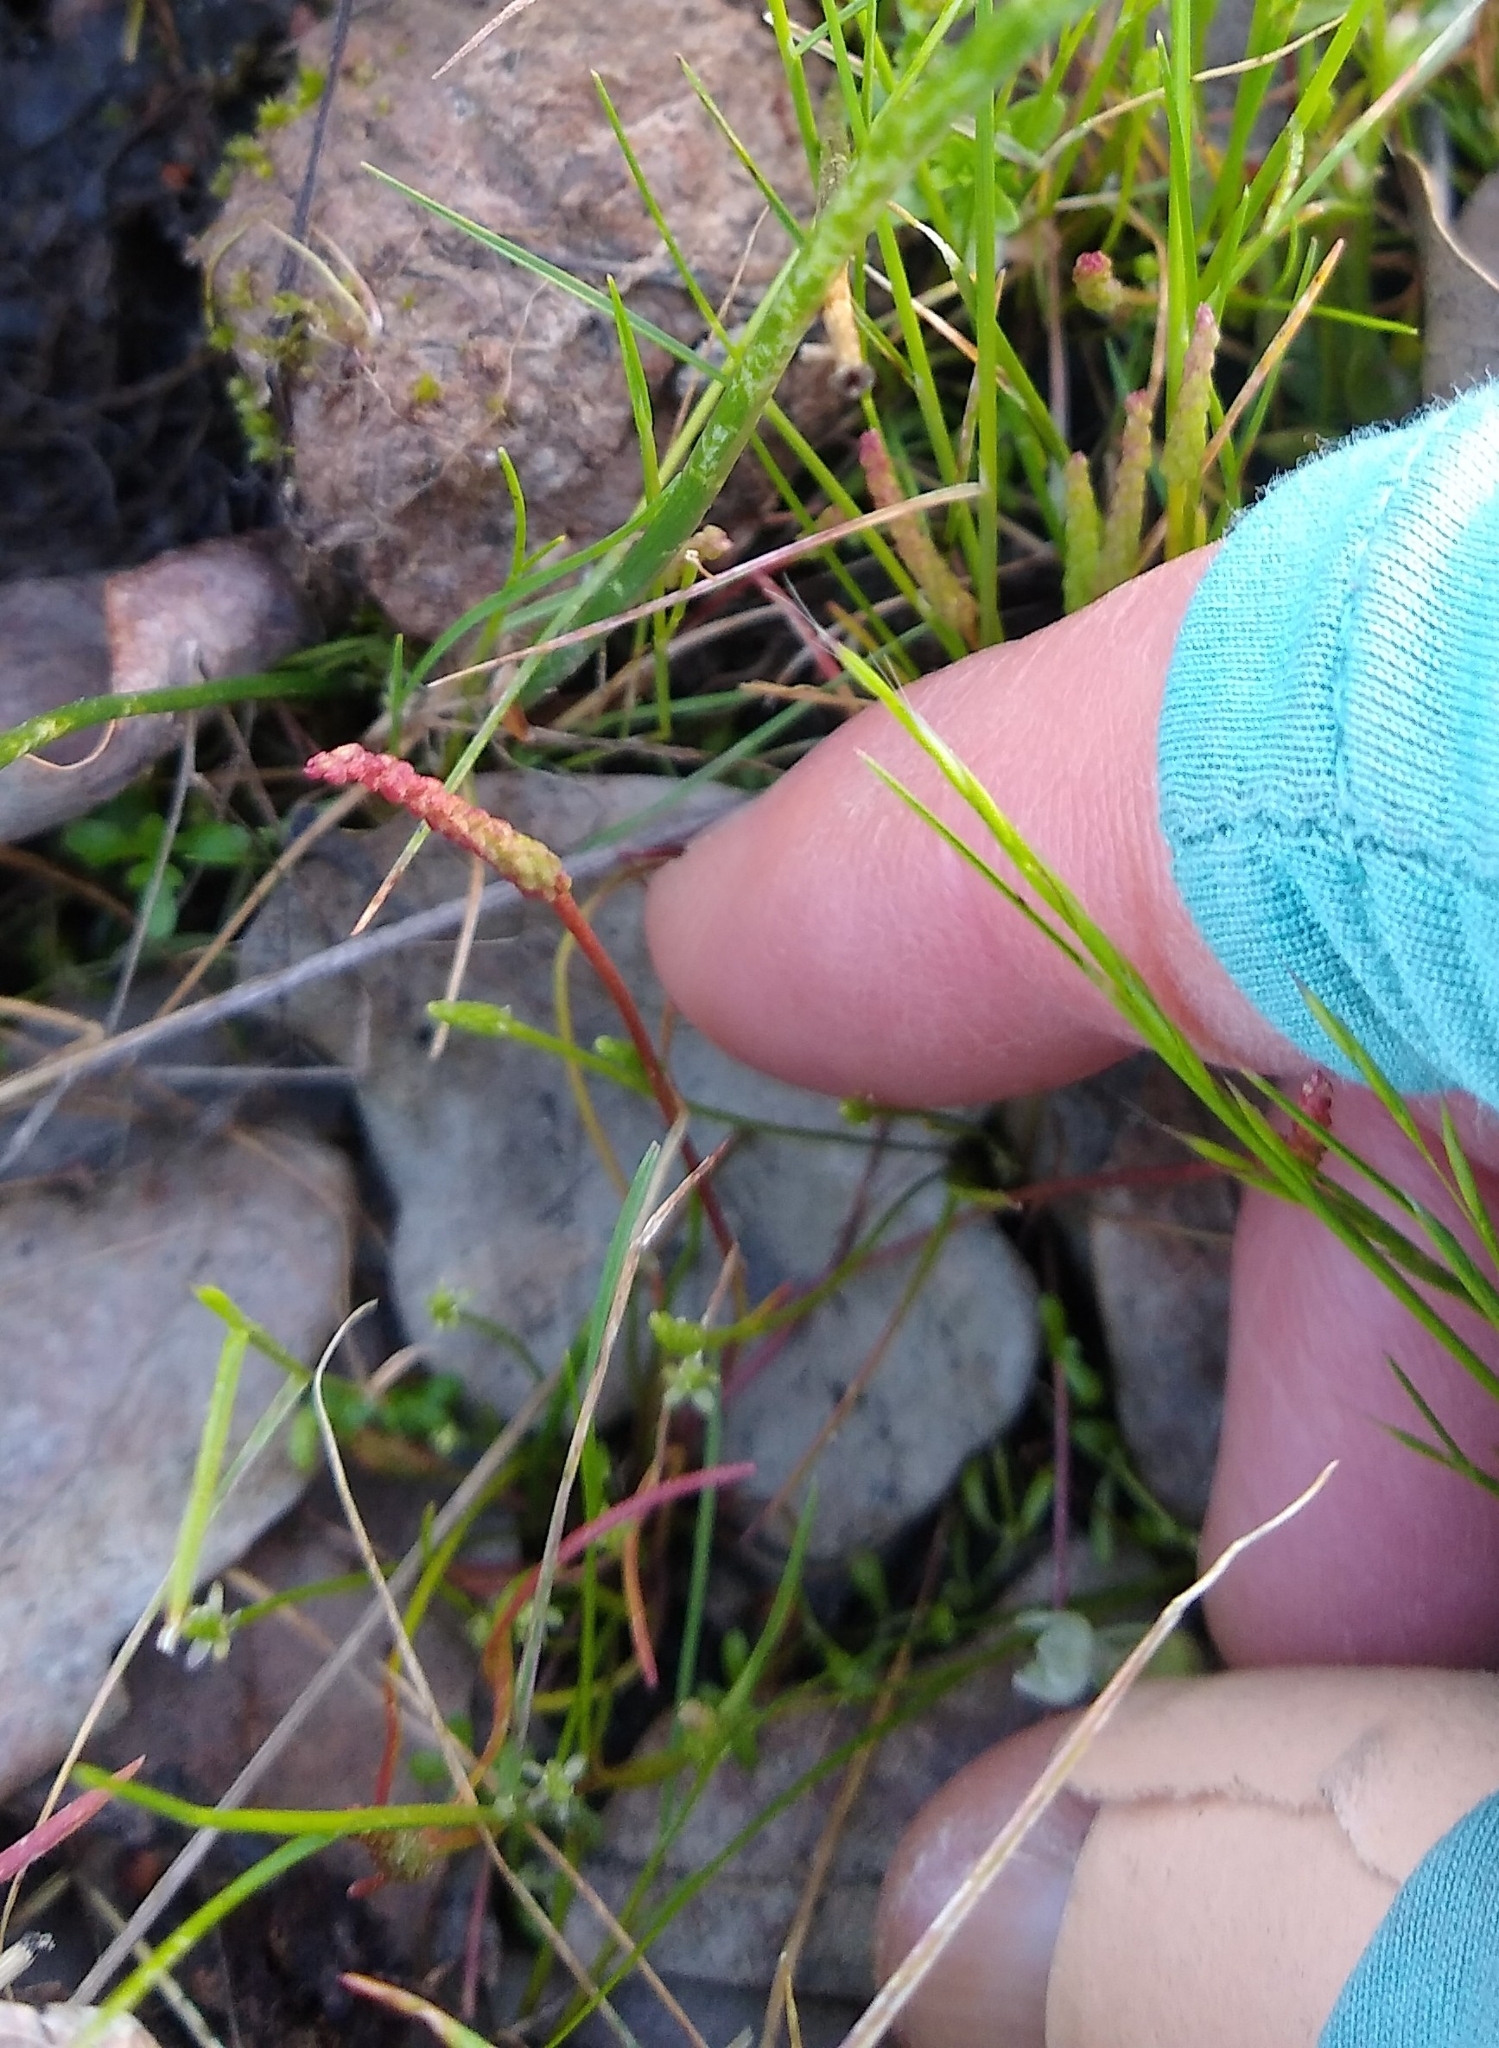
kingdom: Plantae
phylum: Tracheophyta
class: Magnoliopsida
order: Ranunculales
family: Ranunculaceae
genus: Myosurus
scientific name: Myosurus minimus
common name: Mousetail
